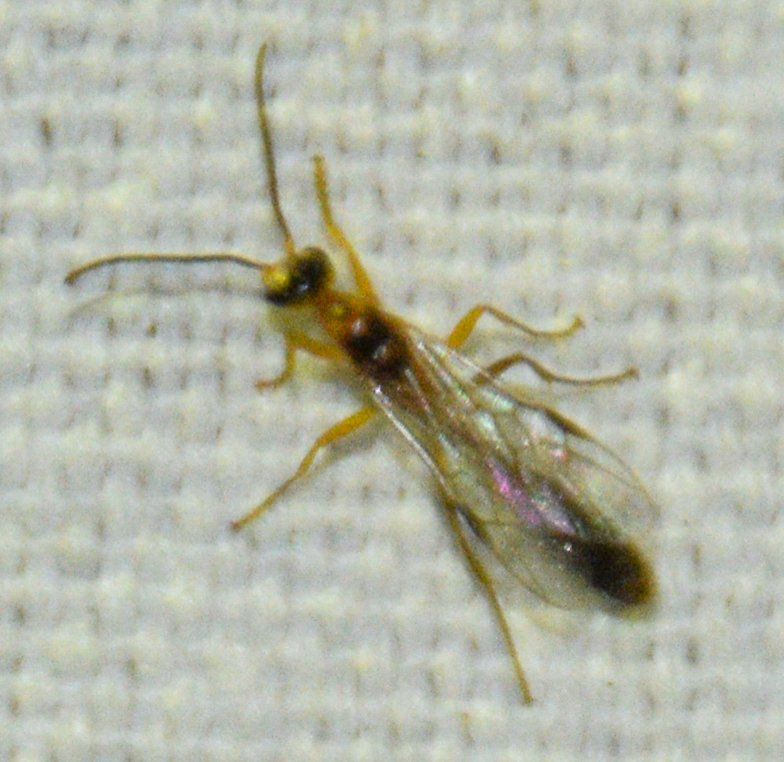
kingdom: Animalia
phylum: Arthropoda
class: Insecta
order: Hymenoptera
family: Formicidae
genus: Pseudomyrmex
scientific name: Pseudomyrmex gracilis
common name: Graceful twig ant
